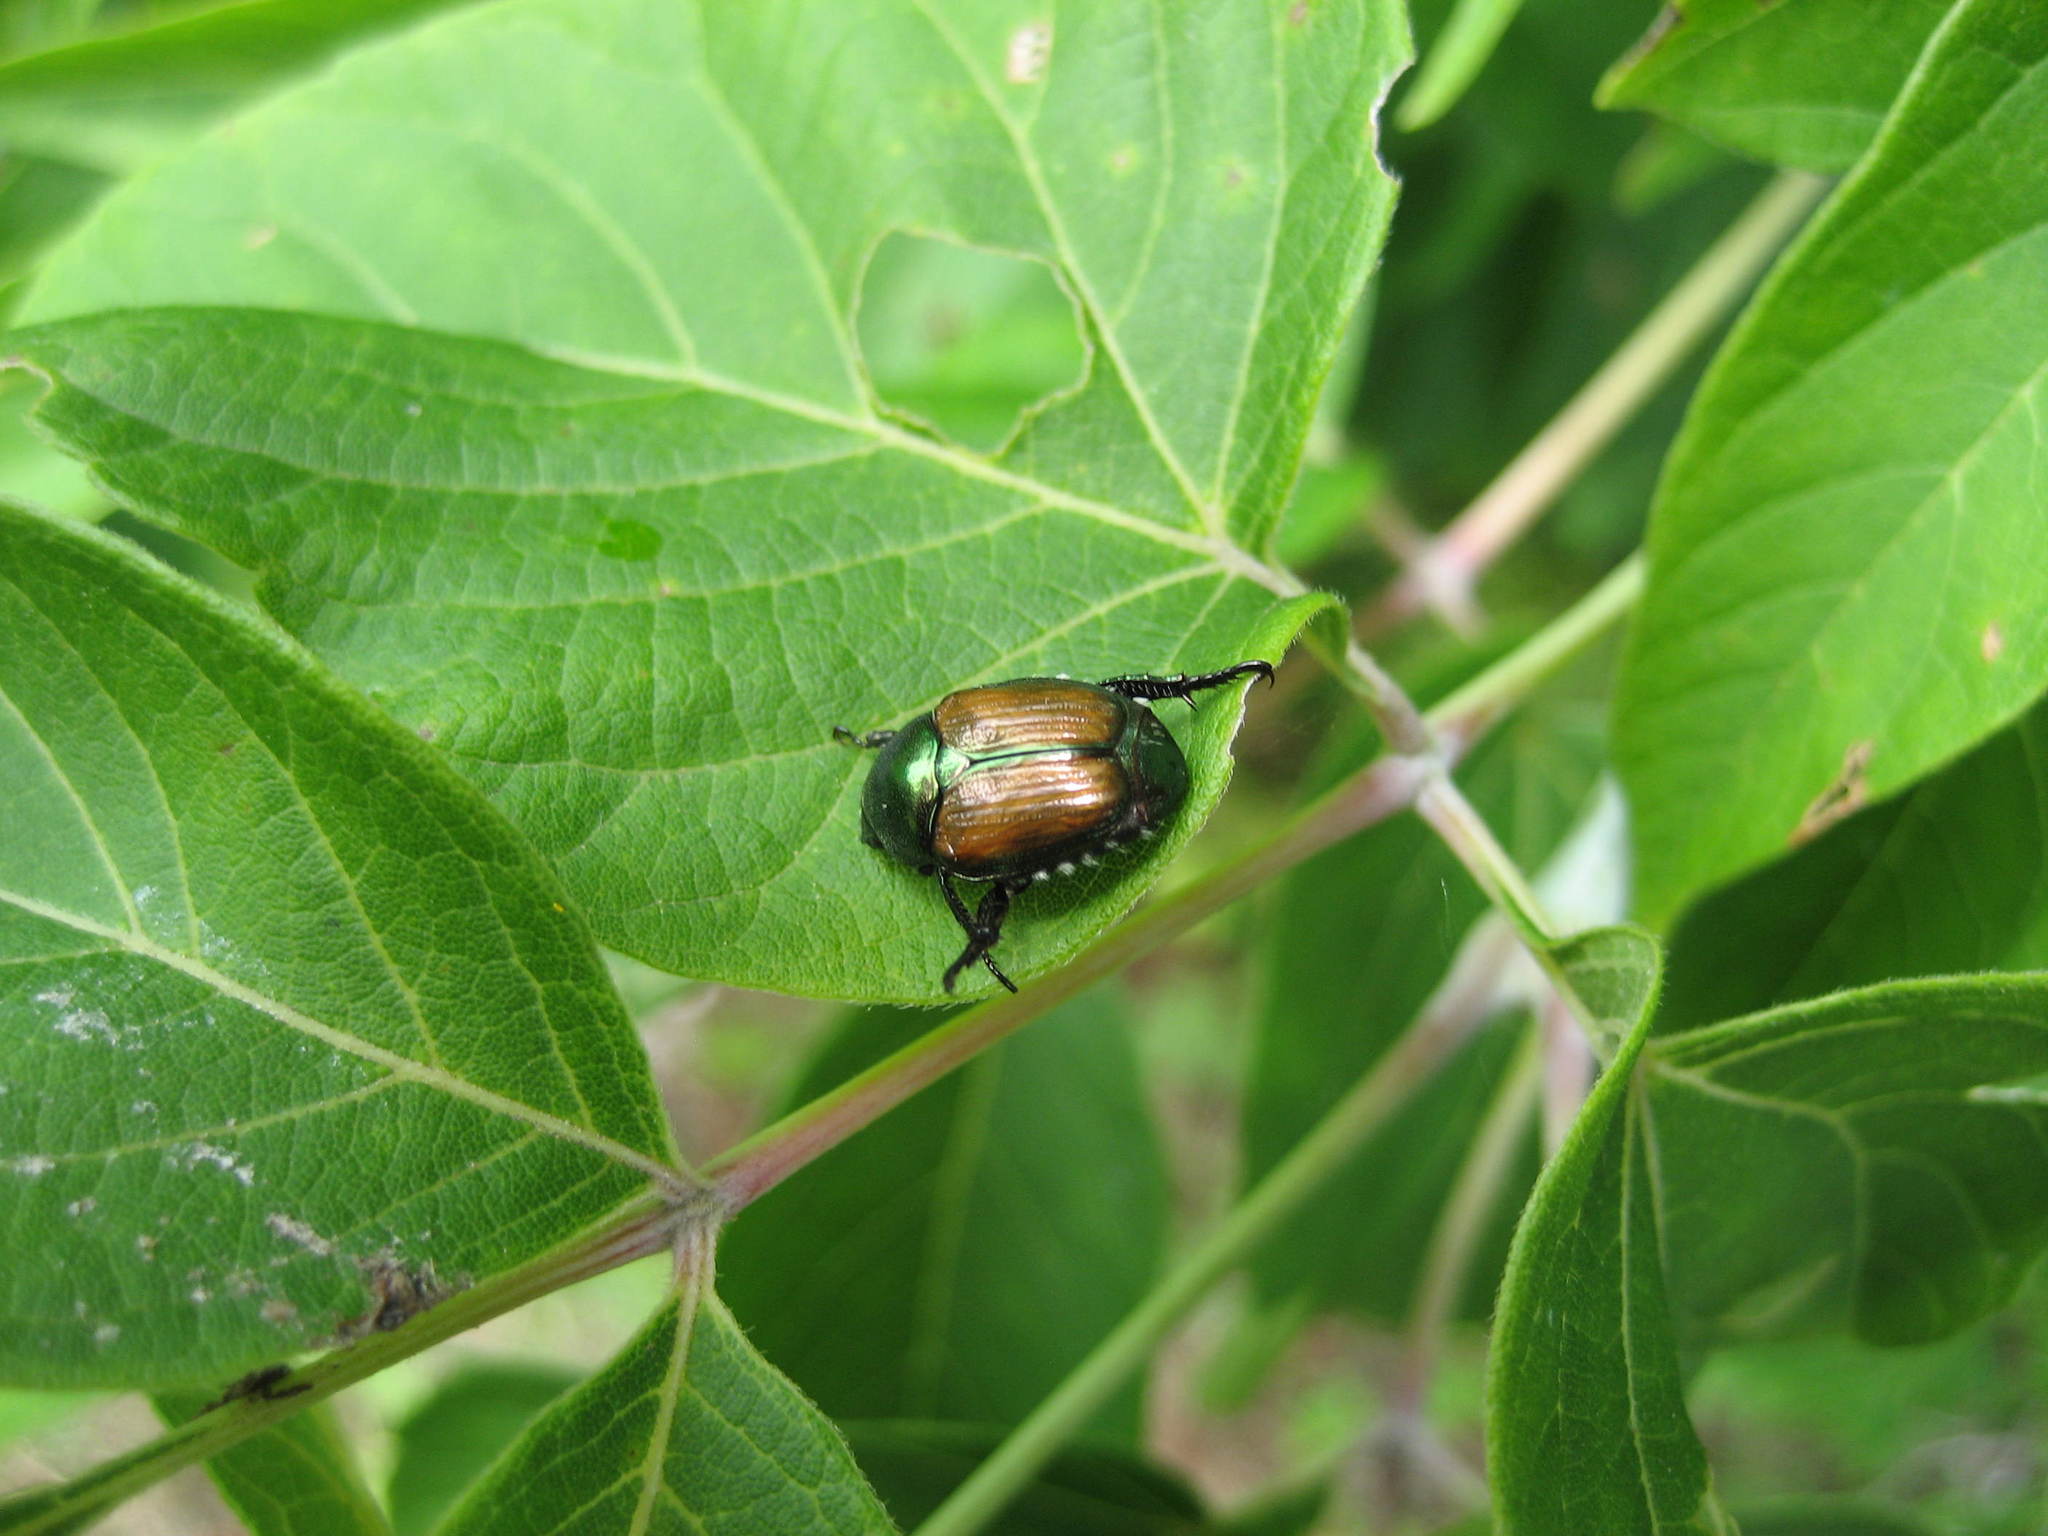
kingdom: Animalia
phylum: Arthropoda
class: Insecta
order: Coleoptera
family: Scarabaeidae
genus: Popillia
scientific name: Popillia japonica
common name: Japanese beetle
